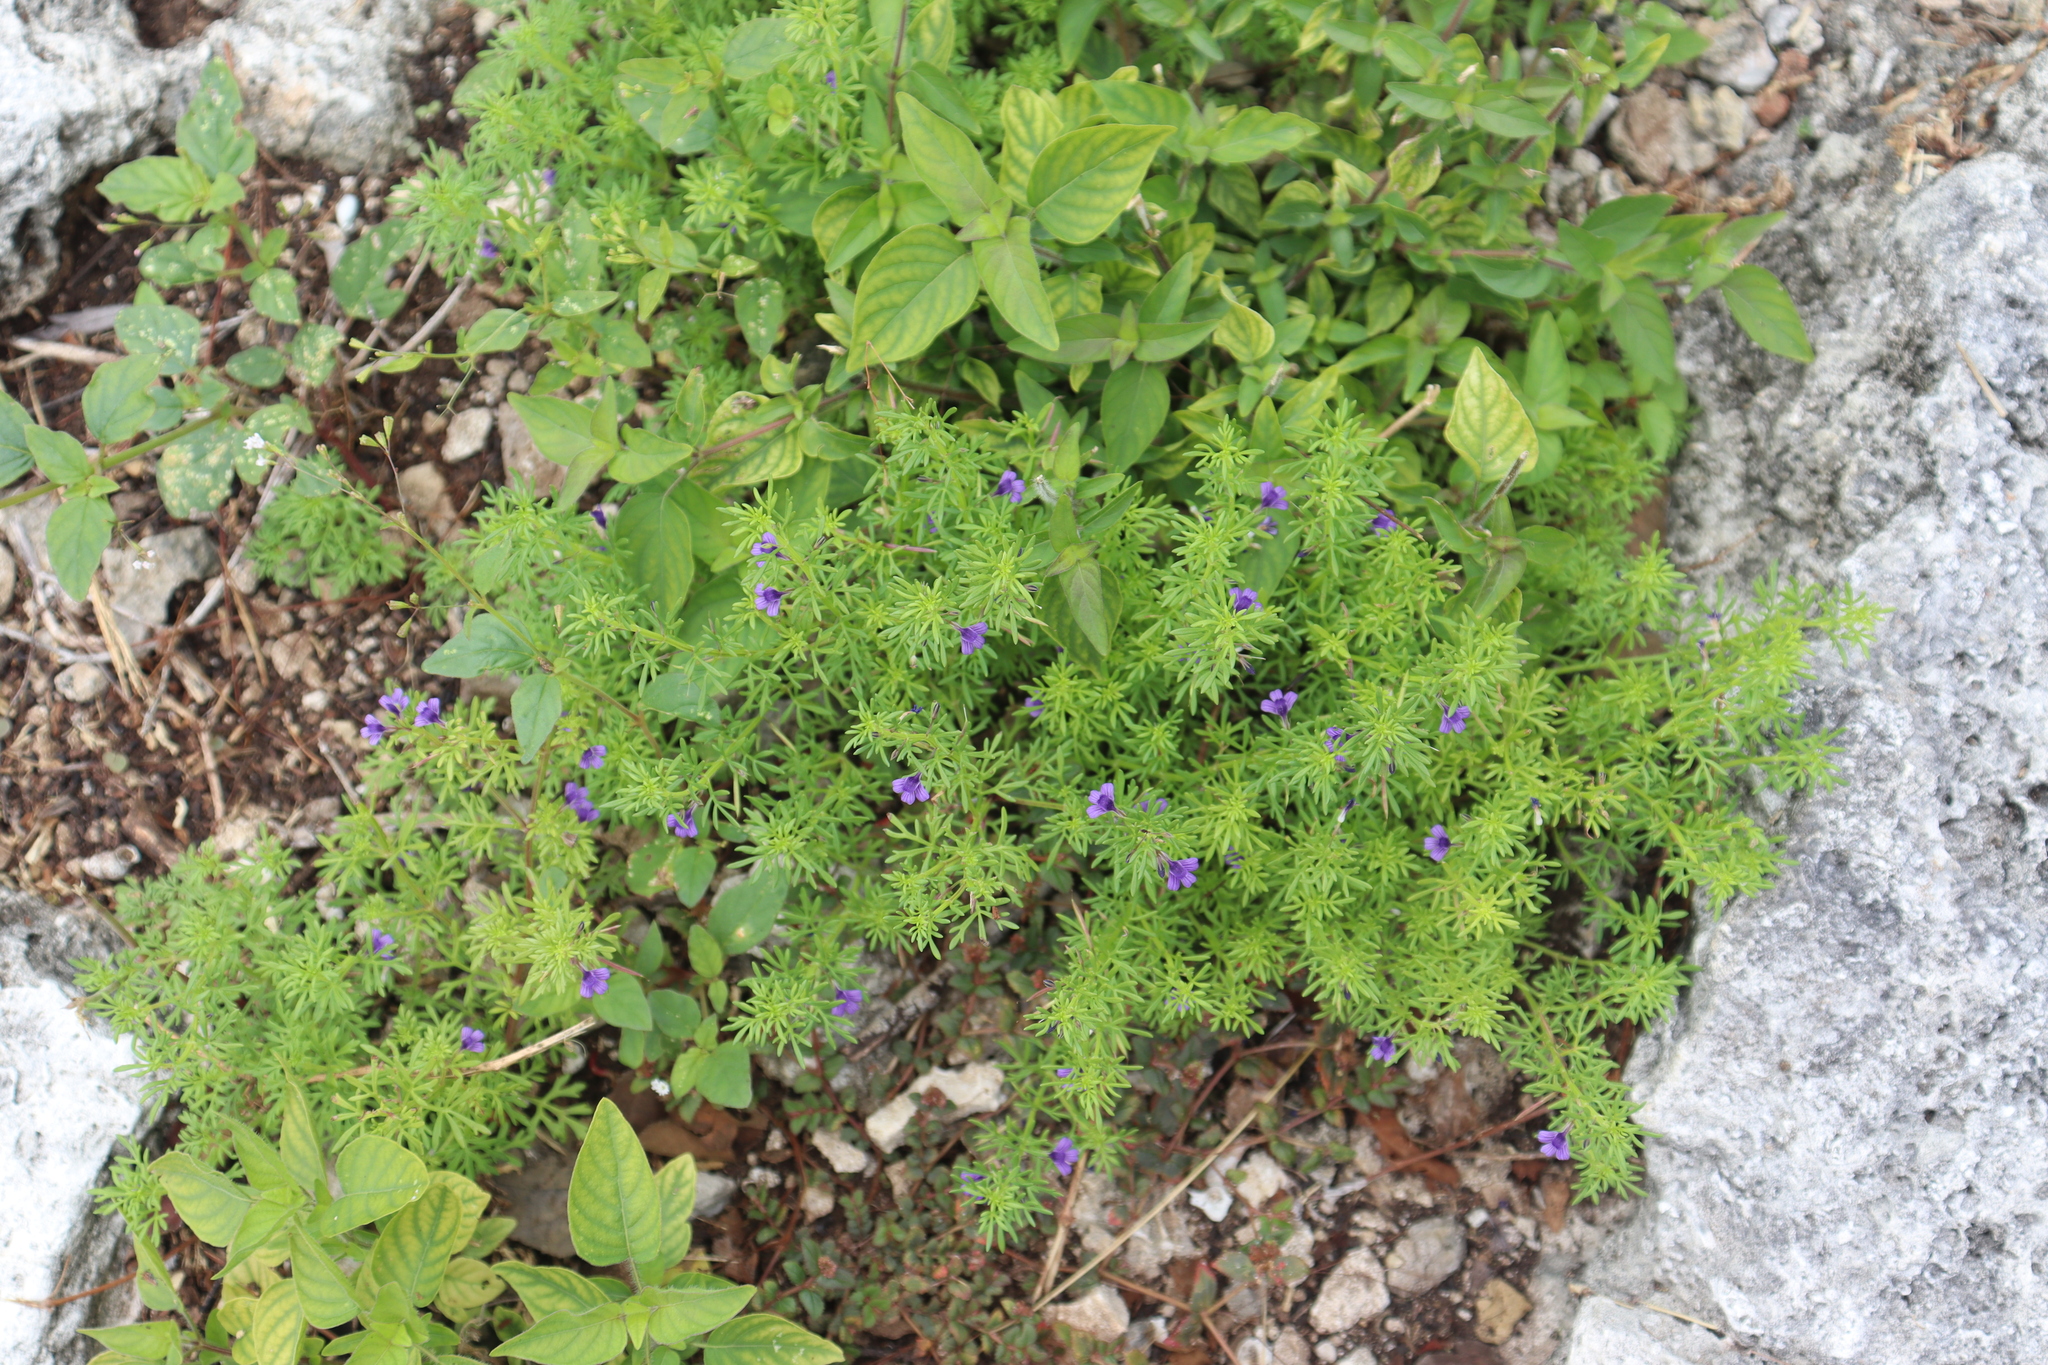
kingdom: Plantae
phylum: Tracheophyta
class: Magnoliopsida
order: Lamiales
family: Plantaginaceae
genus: Schistophragma
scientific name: Schistophragma mexicanum
